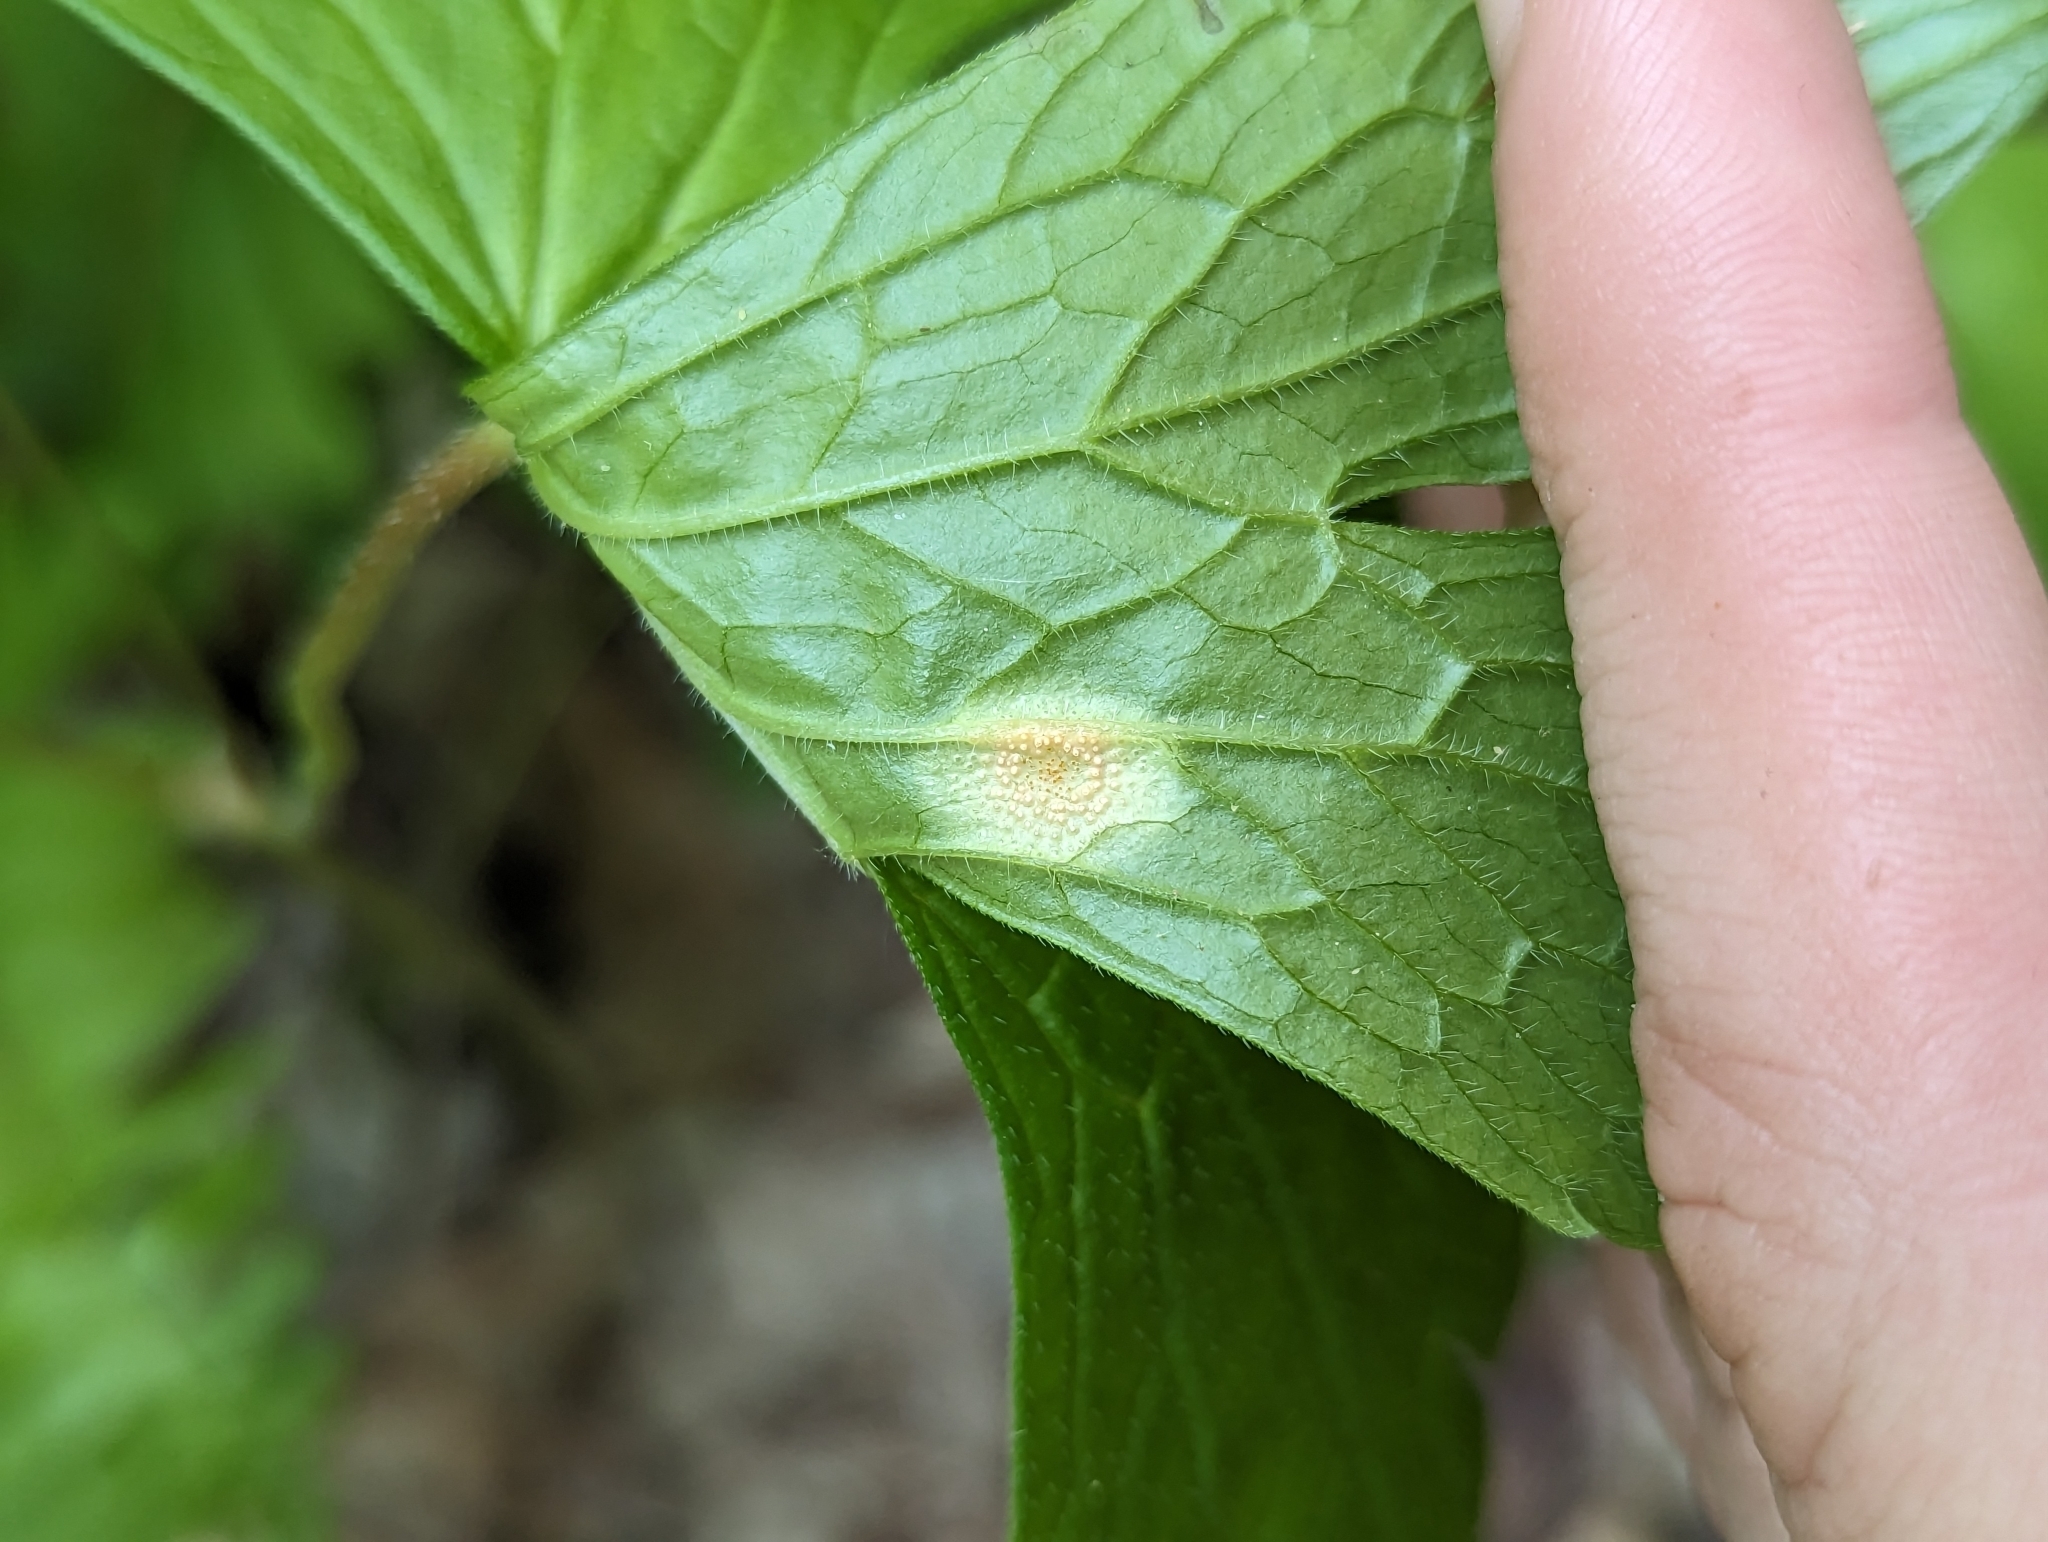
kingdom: Fungi
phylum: Basidiomycota
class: Pucciniomycetes
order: Pucciniales
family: Pucciniaceae
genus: Uromyces
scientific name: Uromyces geranii
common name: Geranium rust
